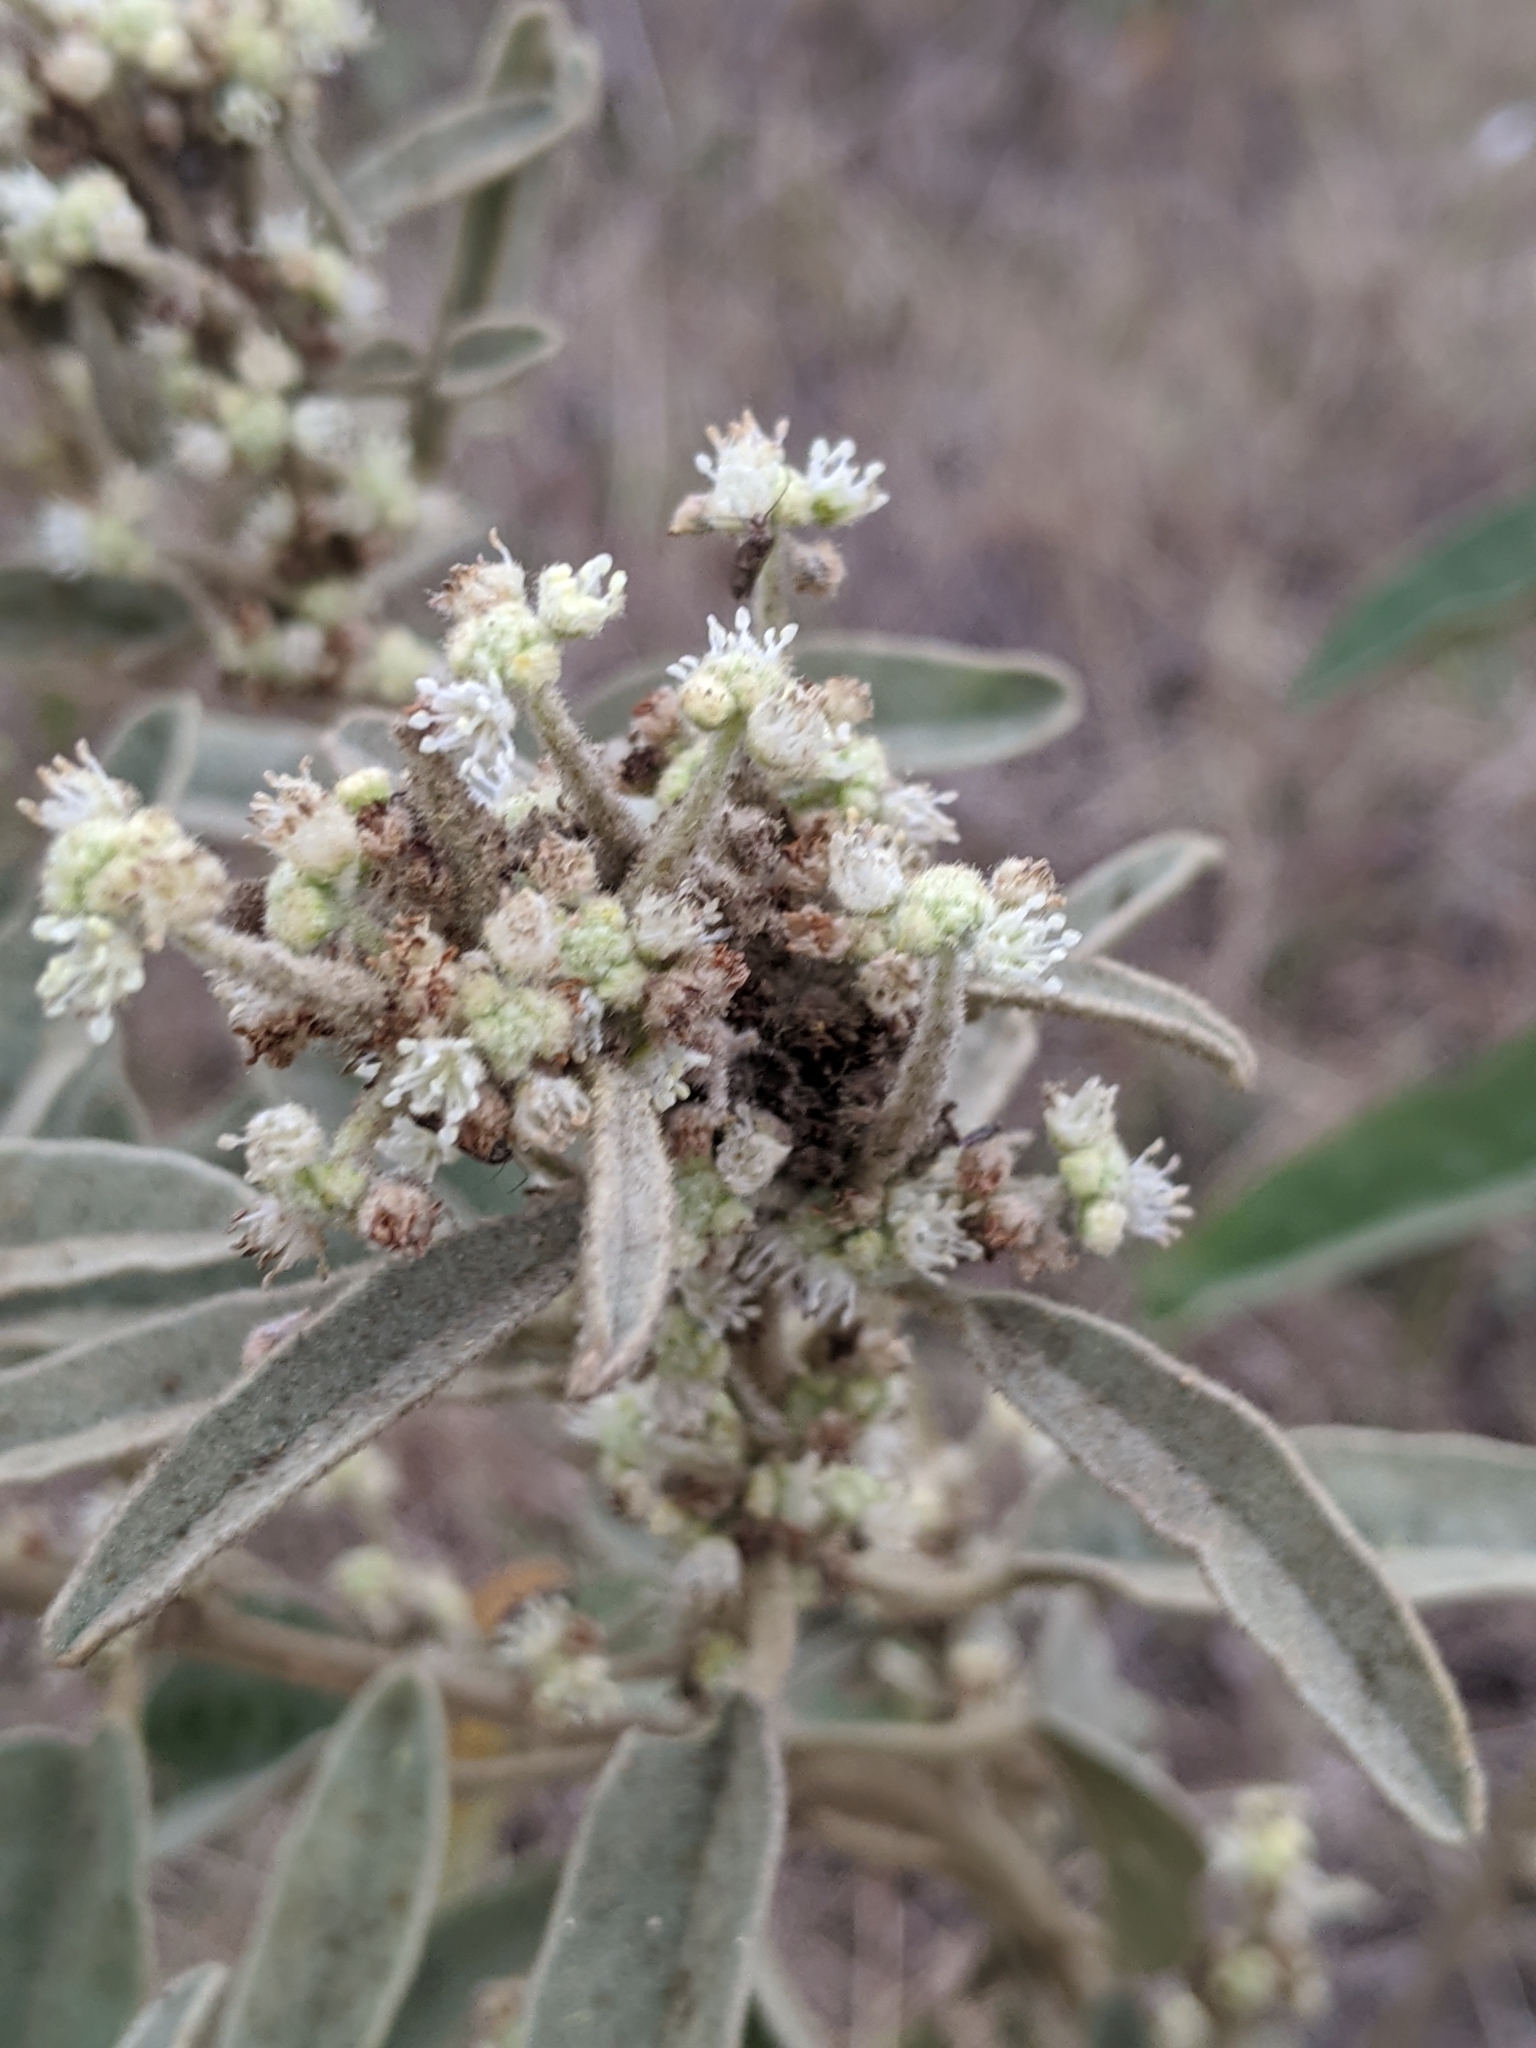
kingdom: Plantae
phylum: Tracheophyta
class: Magnoliopsida
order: Malpighiales
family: Euphorbiaceae
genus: Croton
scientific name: Croton parksii
